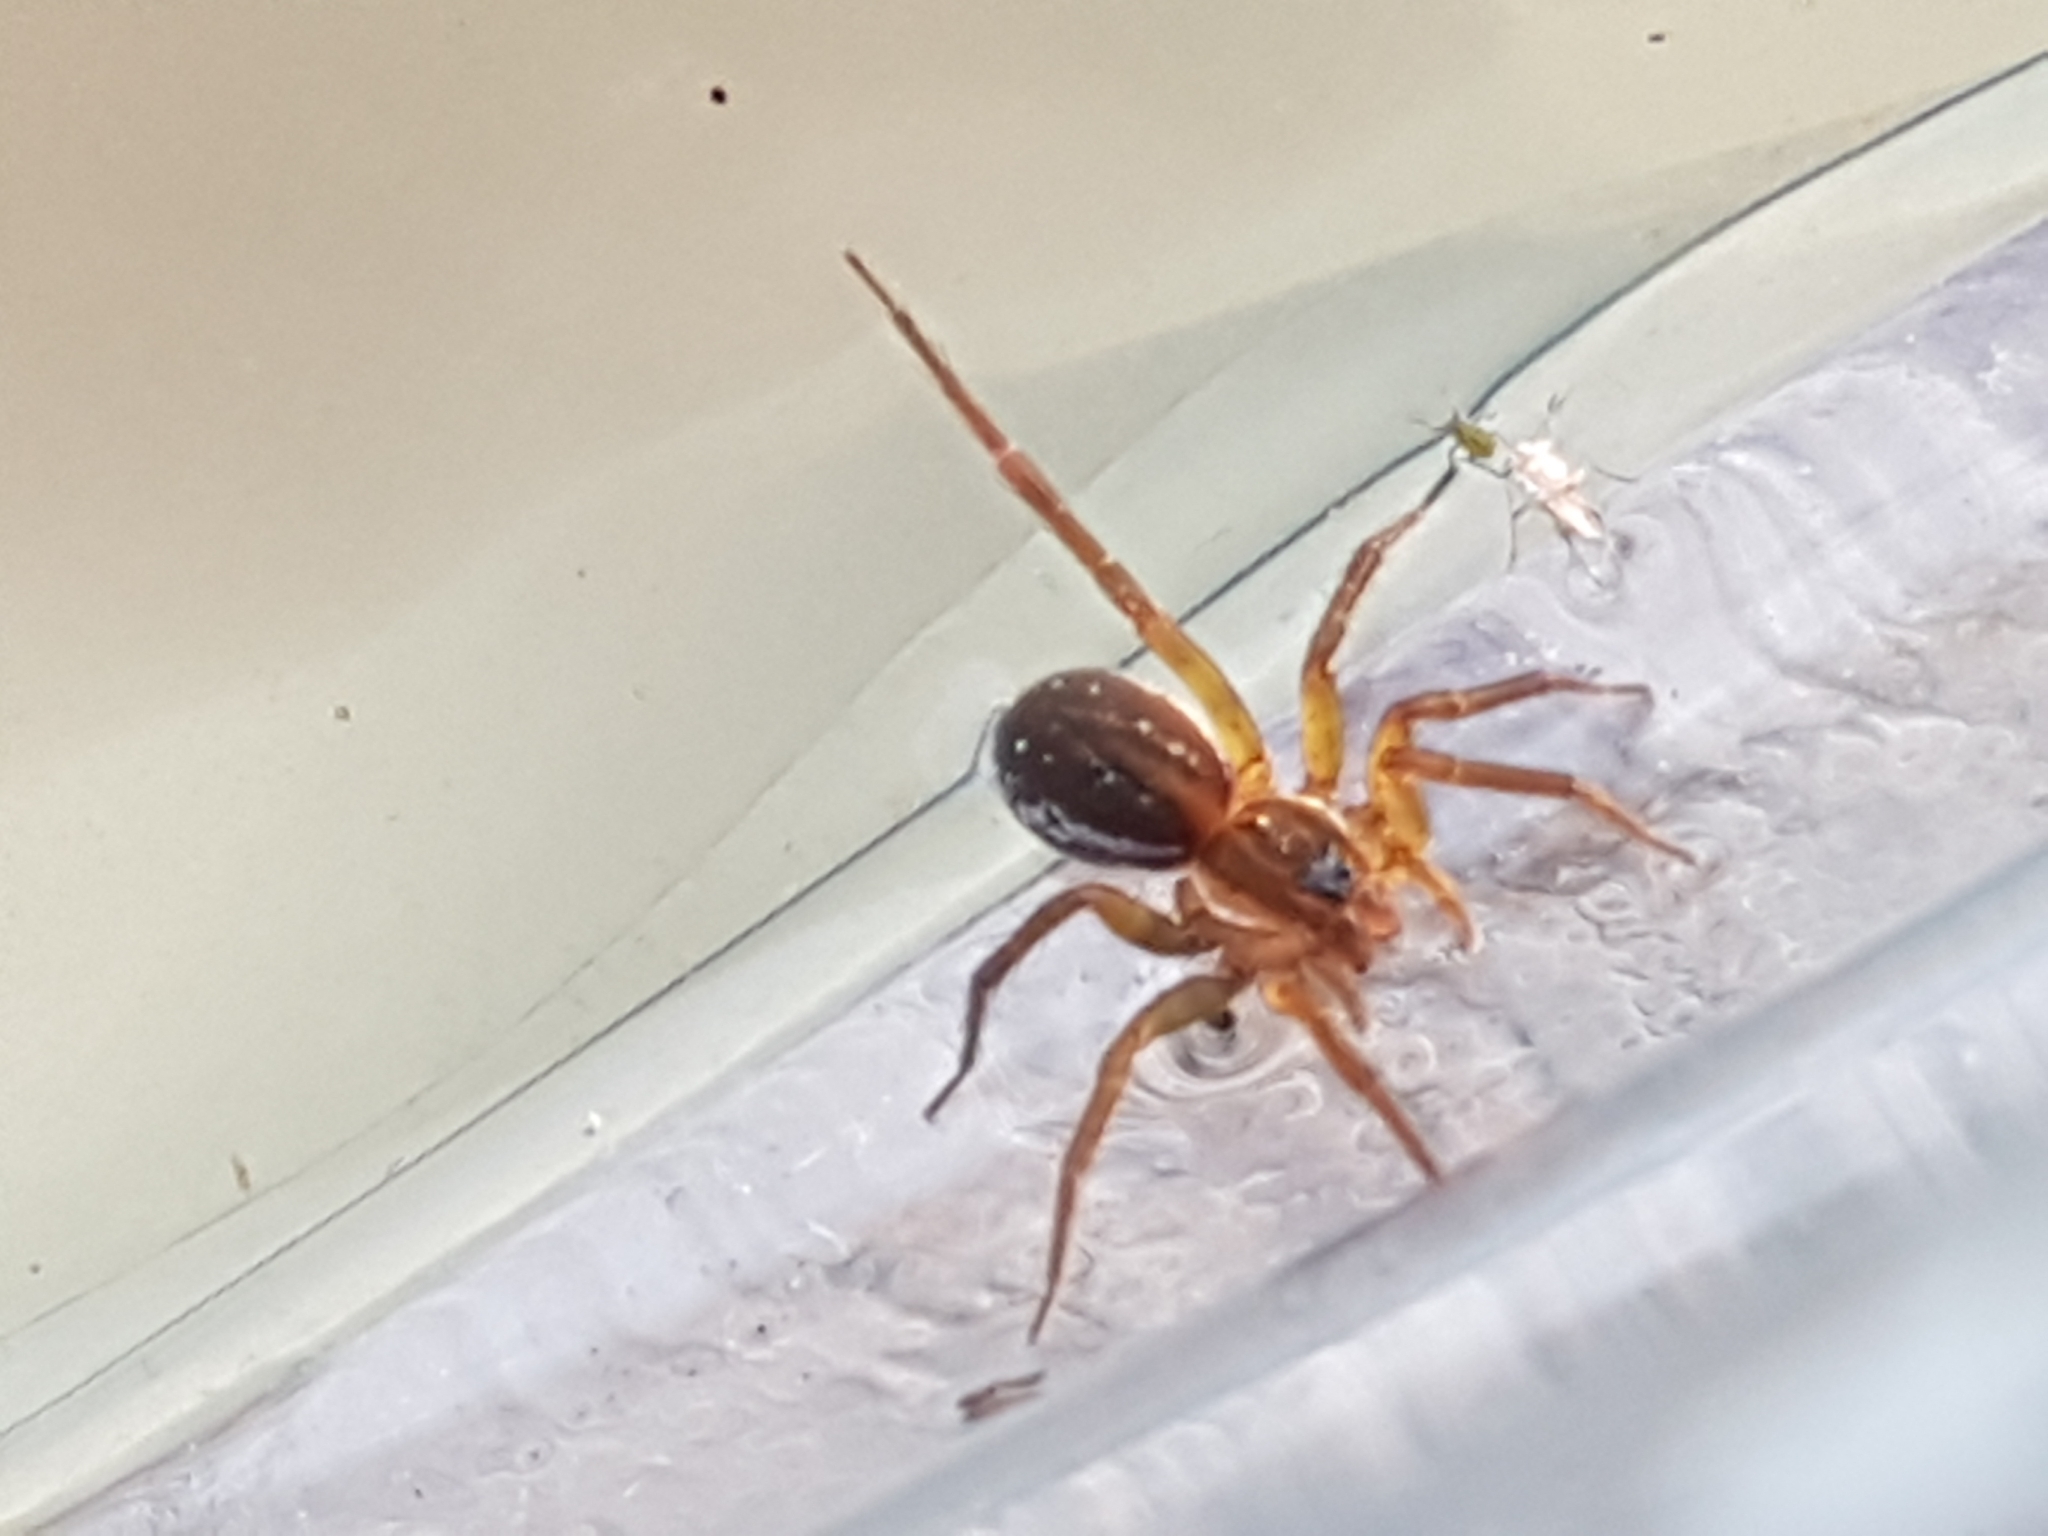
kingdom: Animalia
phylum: Arthropoda
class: Arachnida
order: Araneae
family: Lycosidae
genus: Pirata
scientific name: Pirata piraticus
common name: Pirate otter spider
